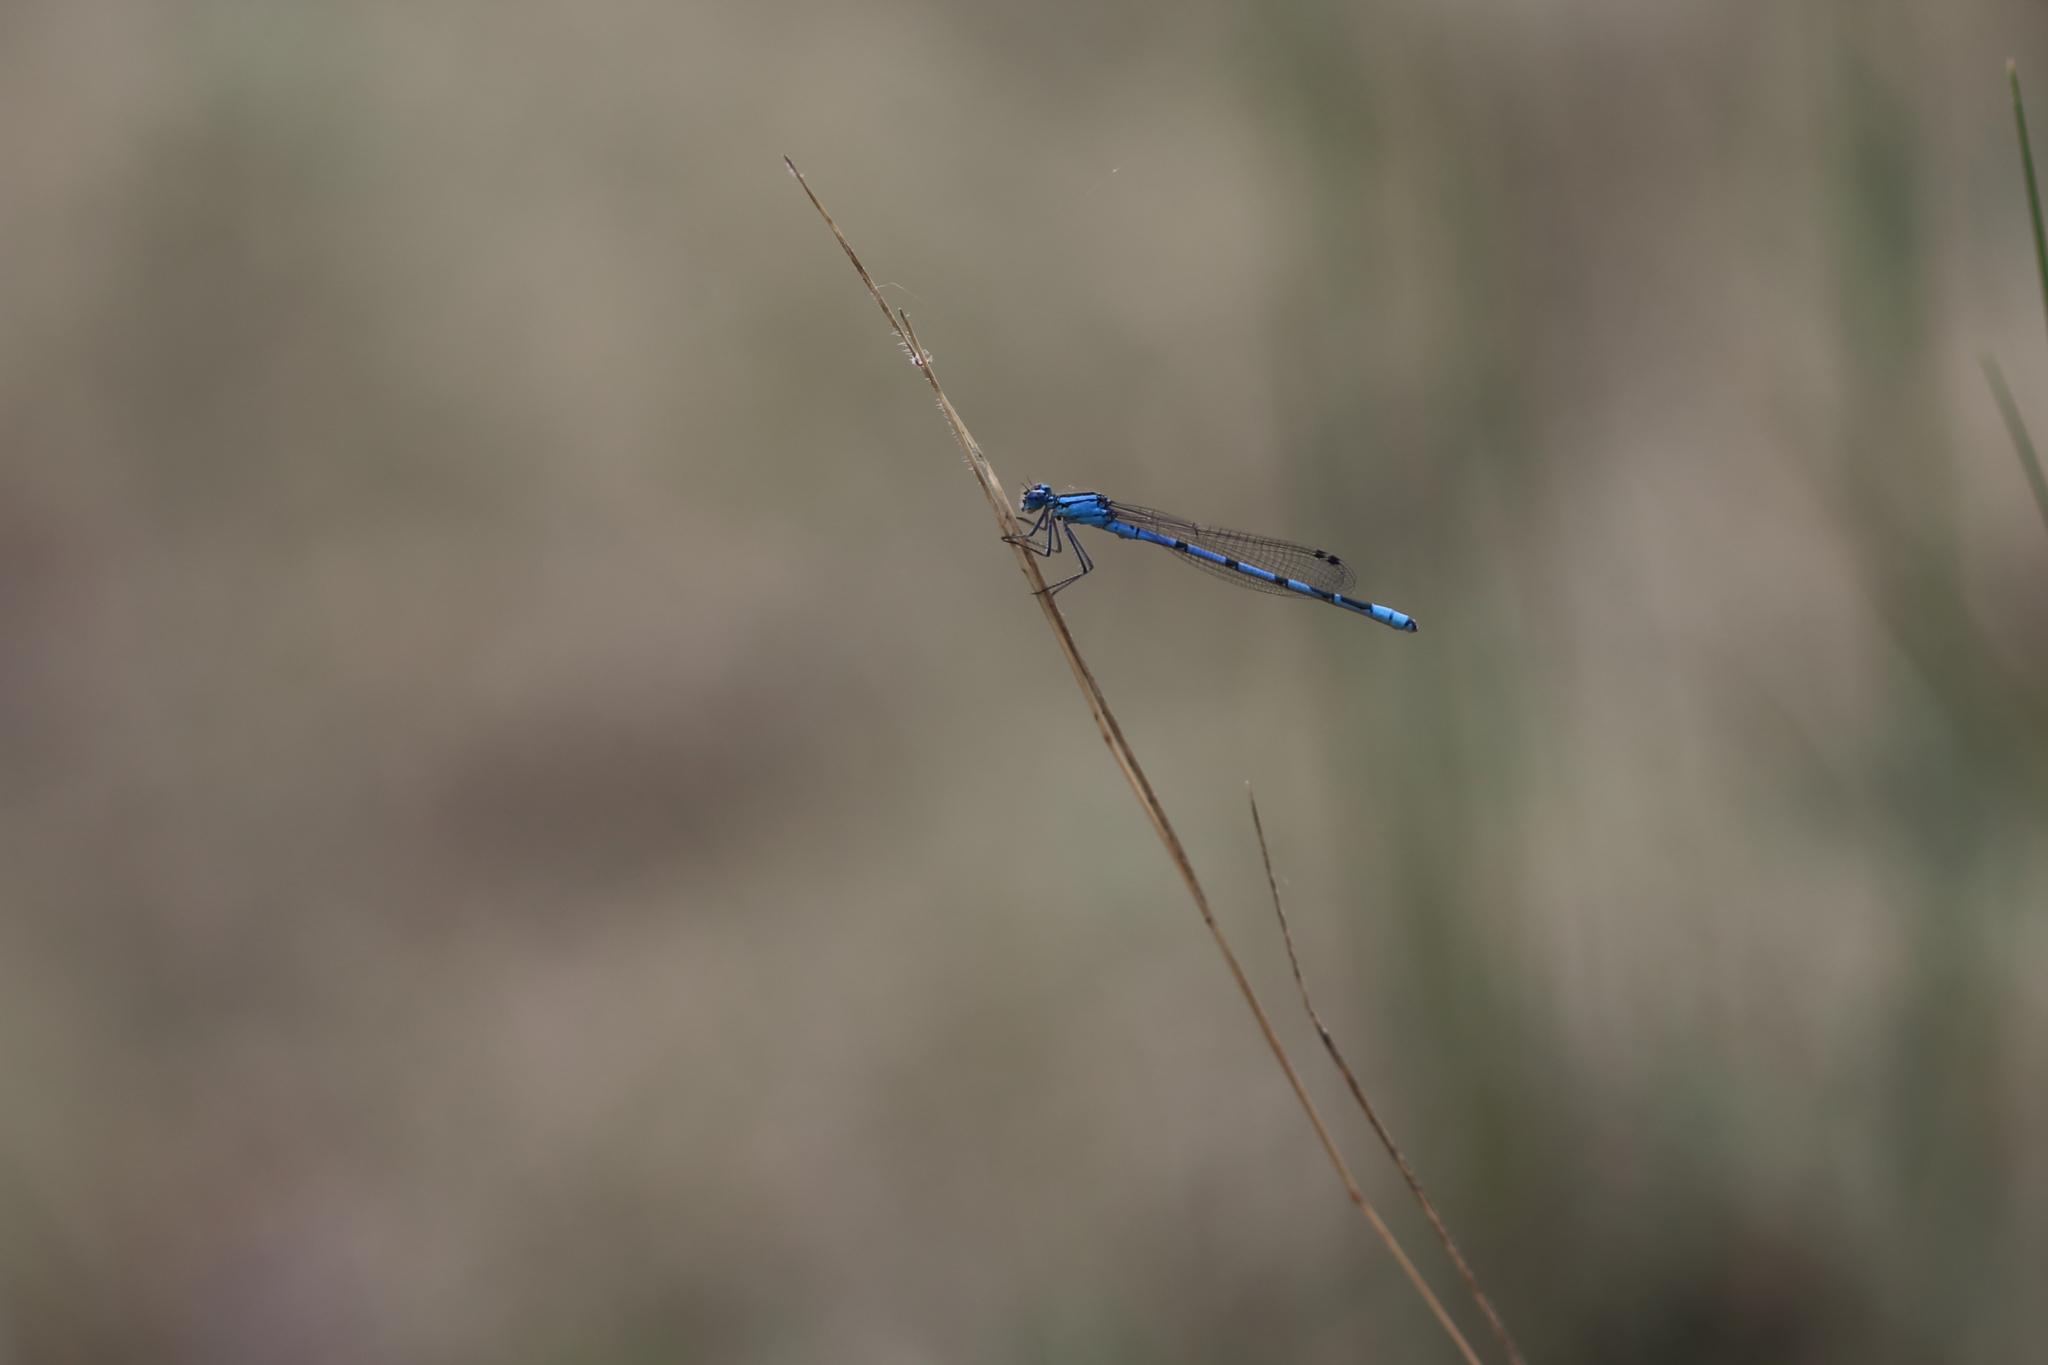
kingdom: Animalia
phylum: Arthropoda
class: Insecta
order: Odonata
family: Coenagrionidae
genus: Enallagma
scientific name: Enallagma
